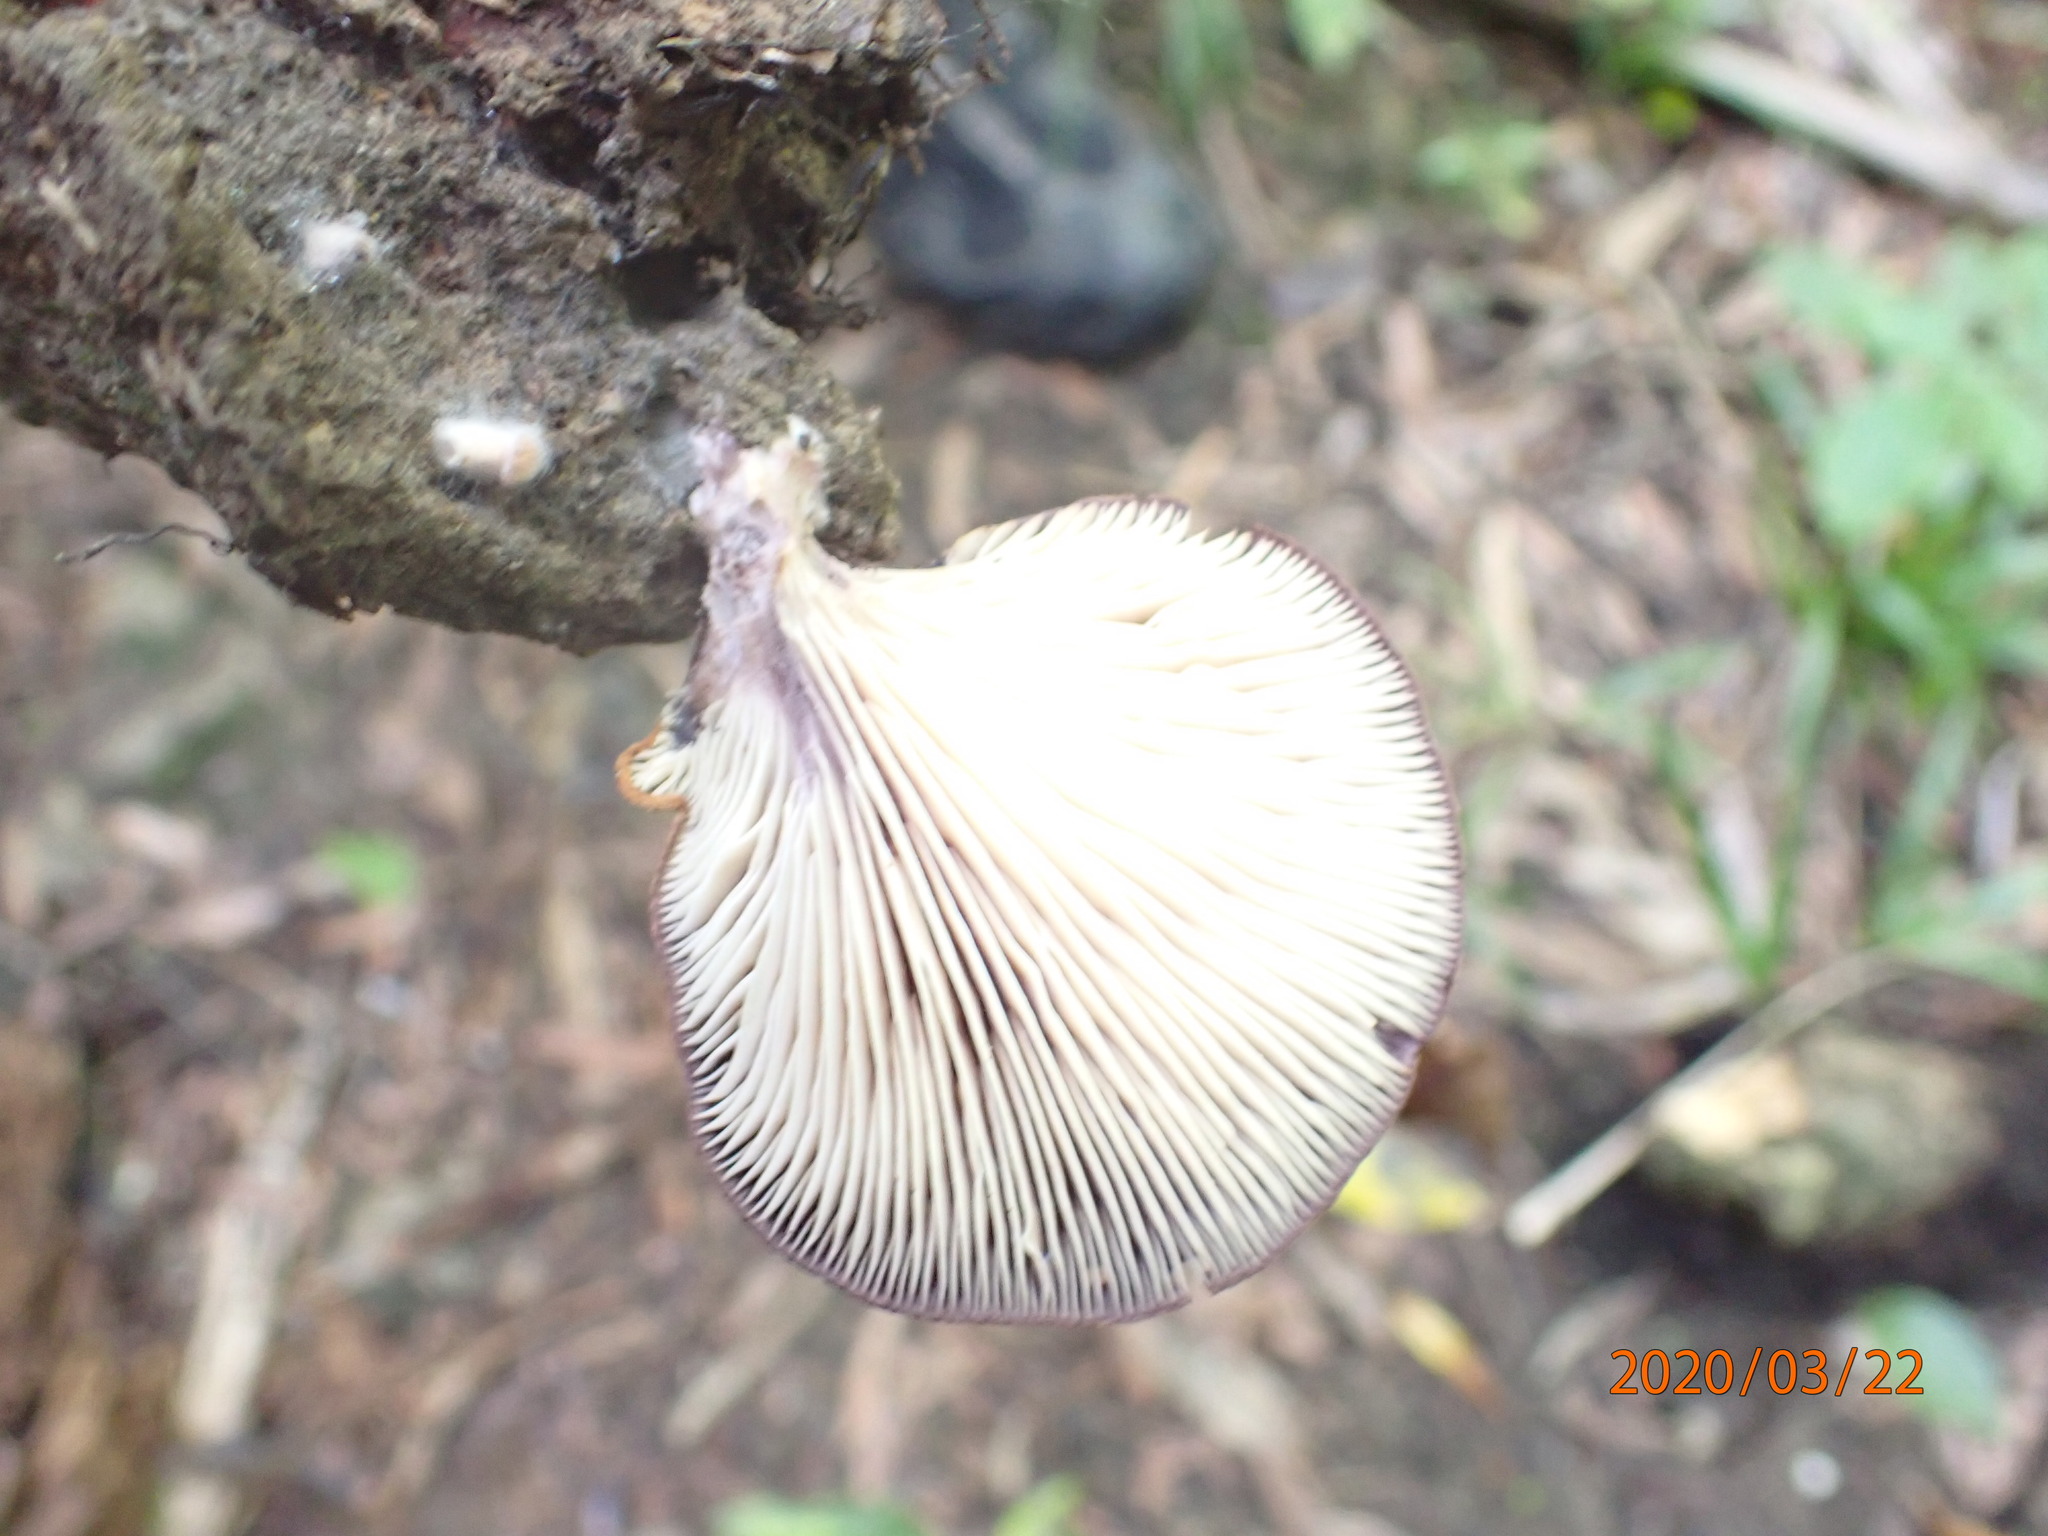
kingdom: Fungi
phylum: Basidiomycota
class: Agaricomycetes
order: Polyporales
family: Panaceae
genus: Panus
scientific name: Panus purpuratus
